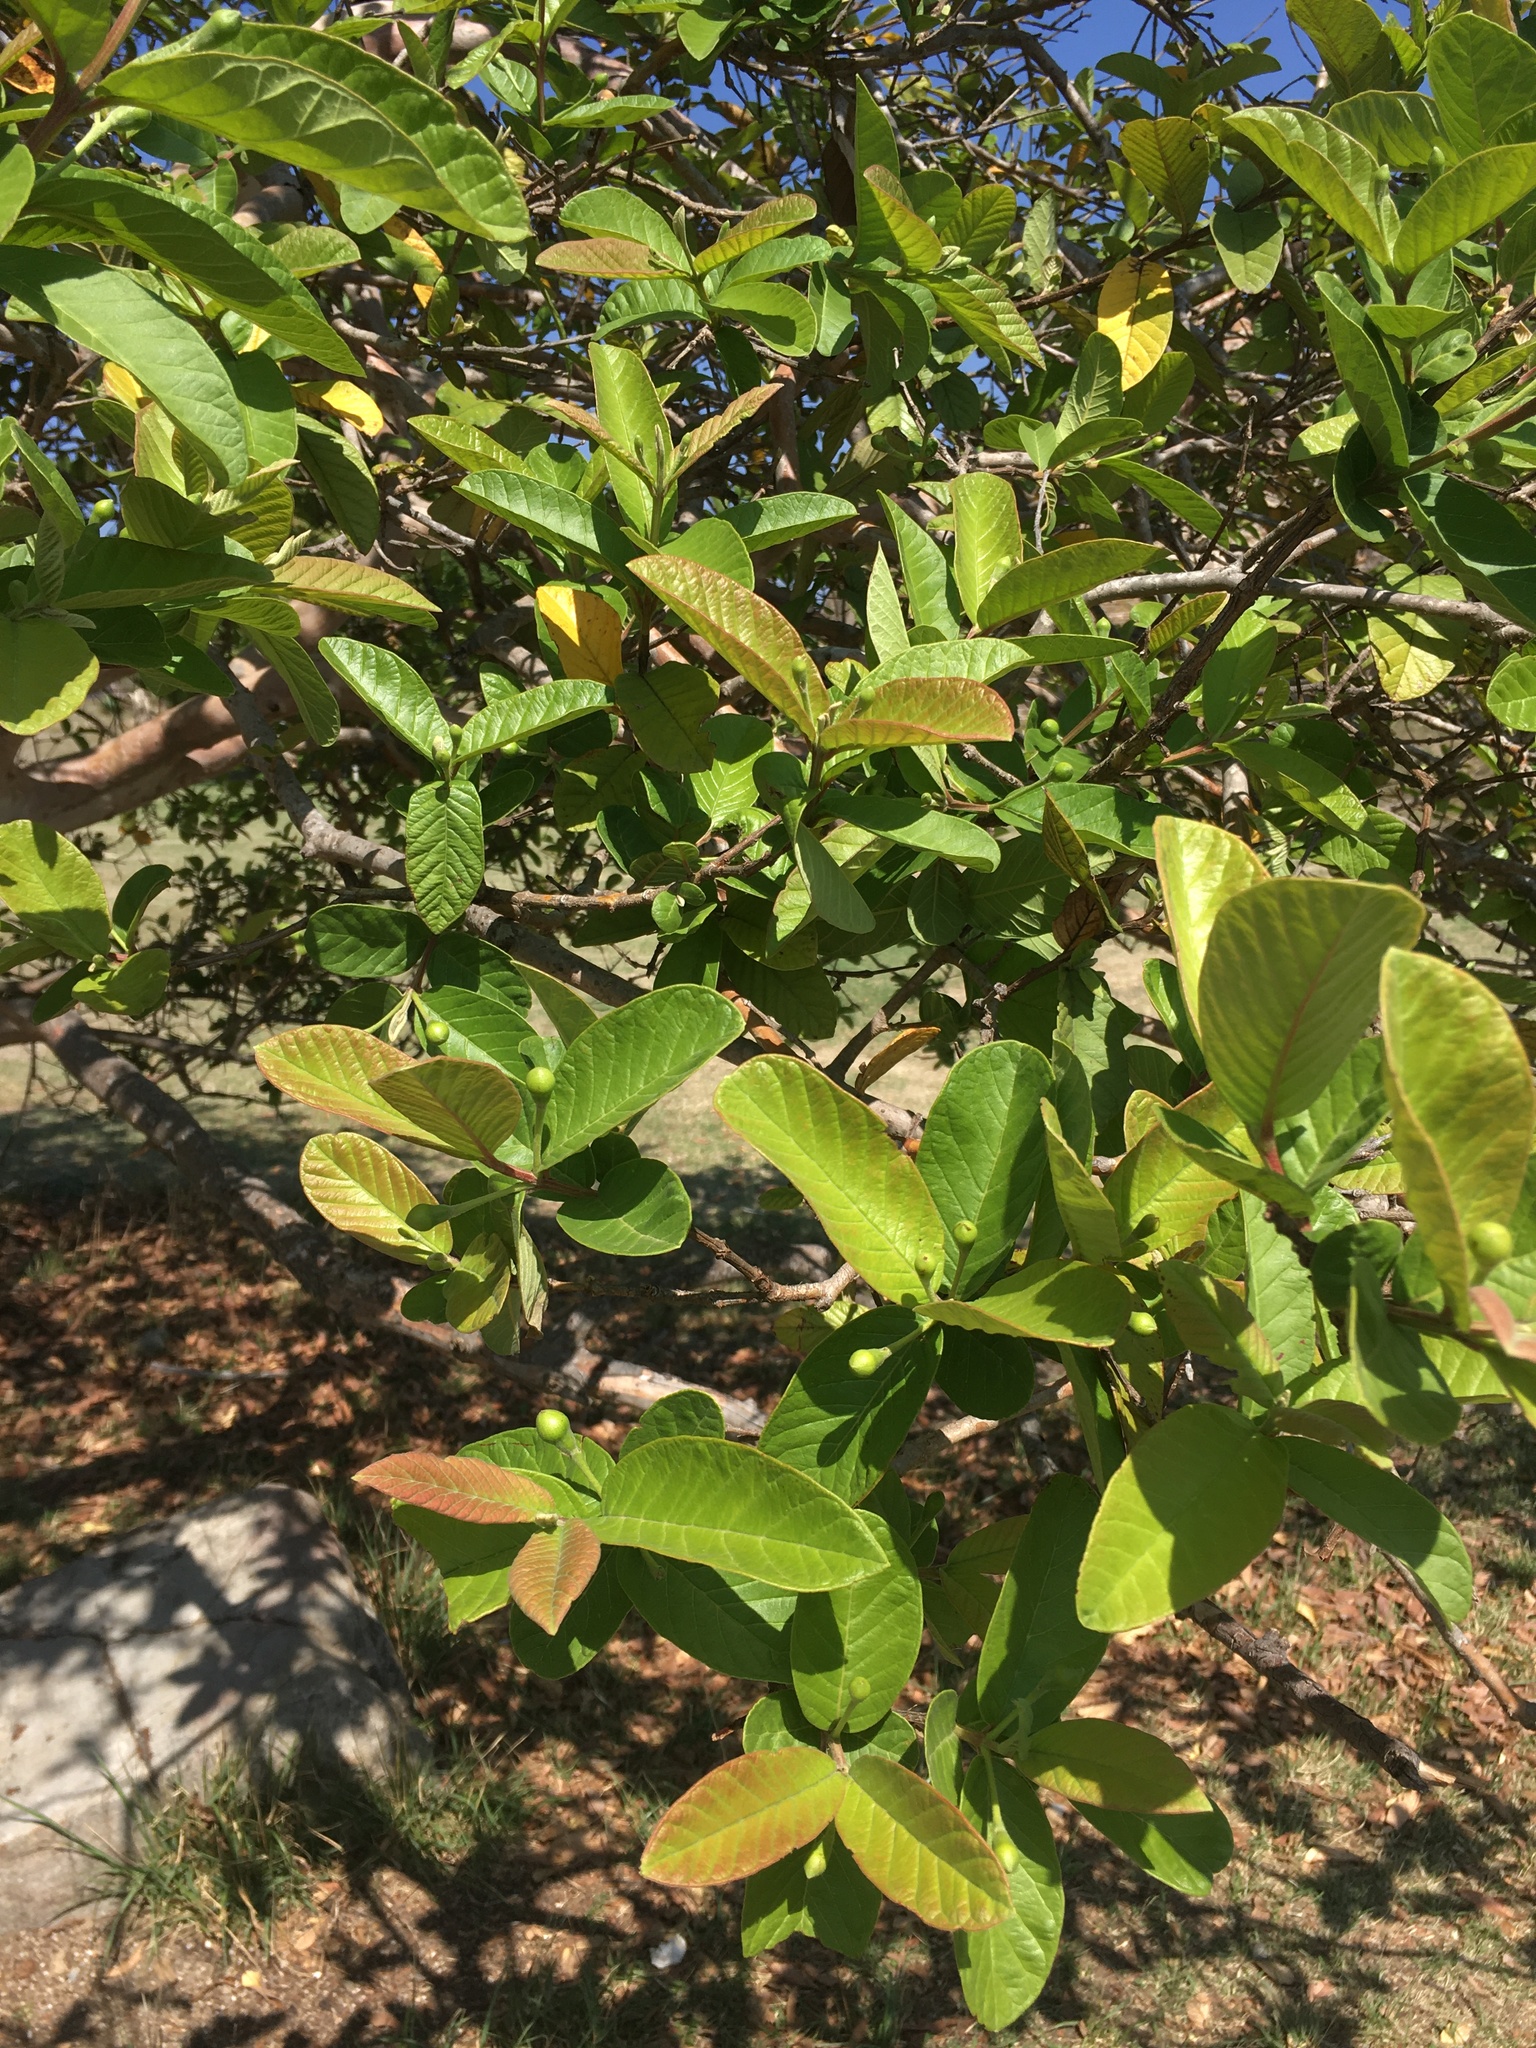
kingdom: Plantae
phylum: Tracheophyta
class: Magnoliopsida
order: Myrtales
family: Myrtaceae
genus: Psidium
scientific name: Psidium guajava
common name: Guava
